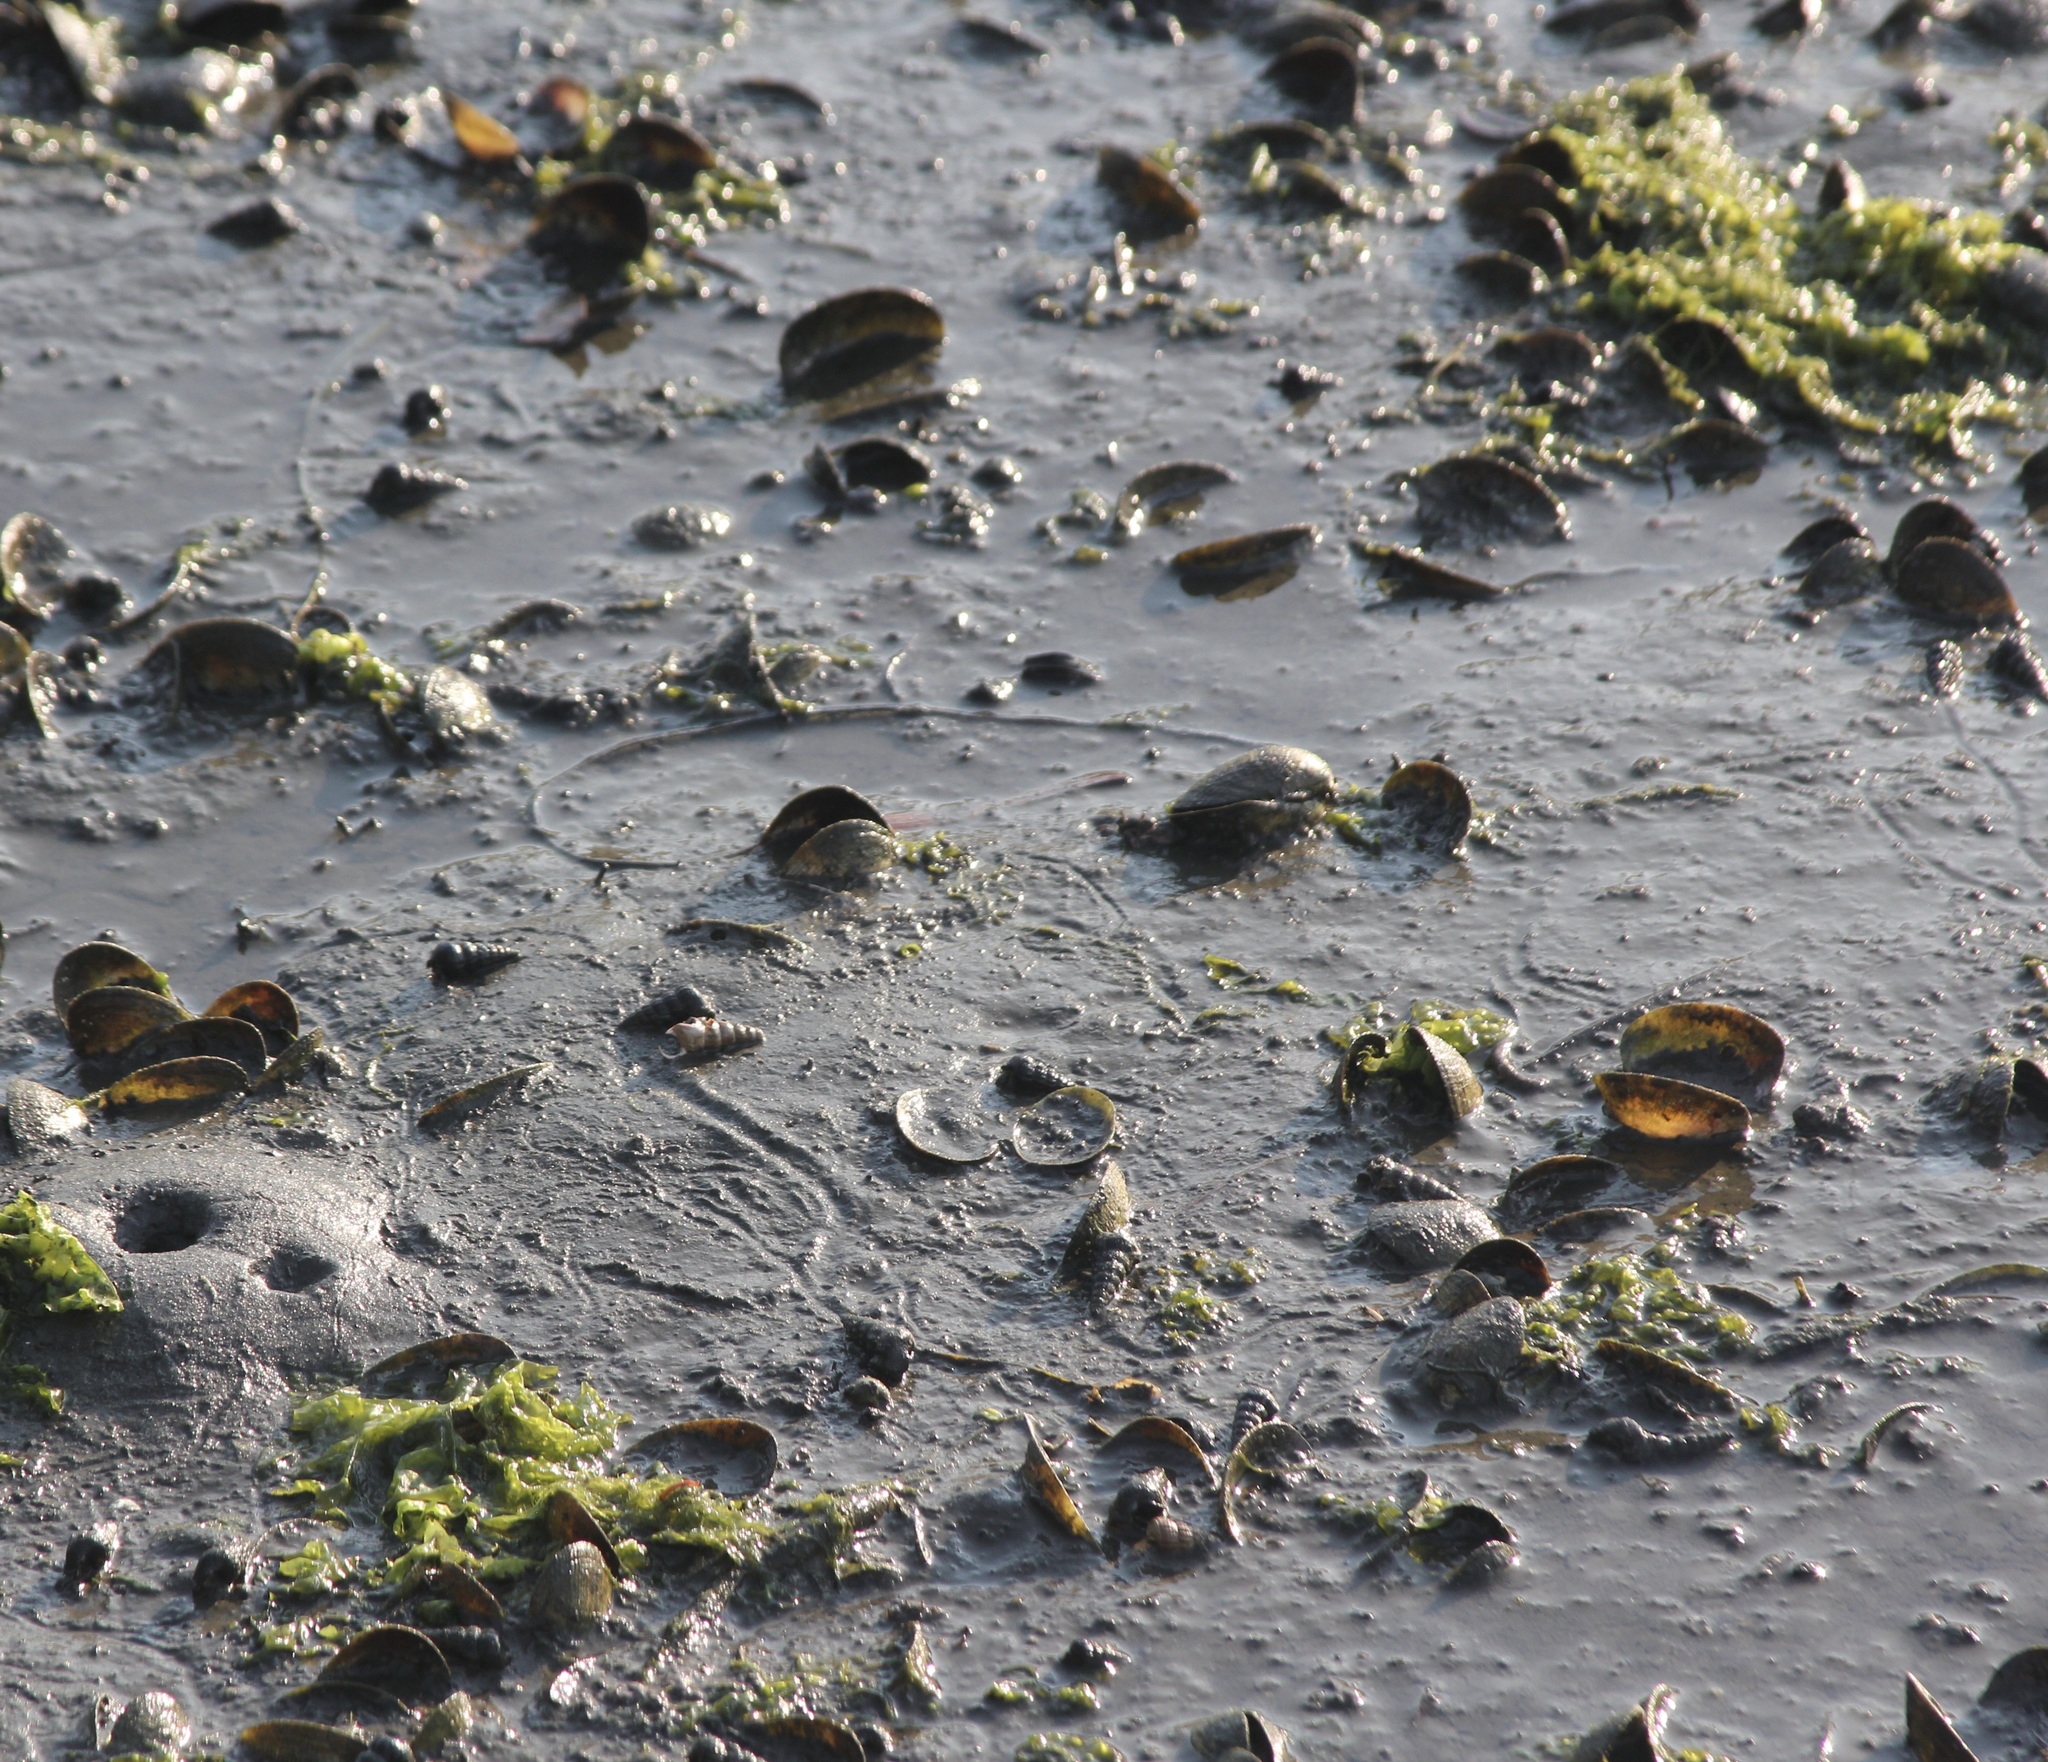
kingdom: Animalia
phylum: Mollusca
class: Bivalvia
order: Venerida
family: Veneridae
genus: Ruditapes
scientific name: Ruditapes philippinarum
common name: Manila clam
